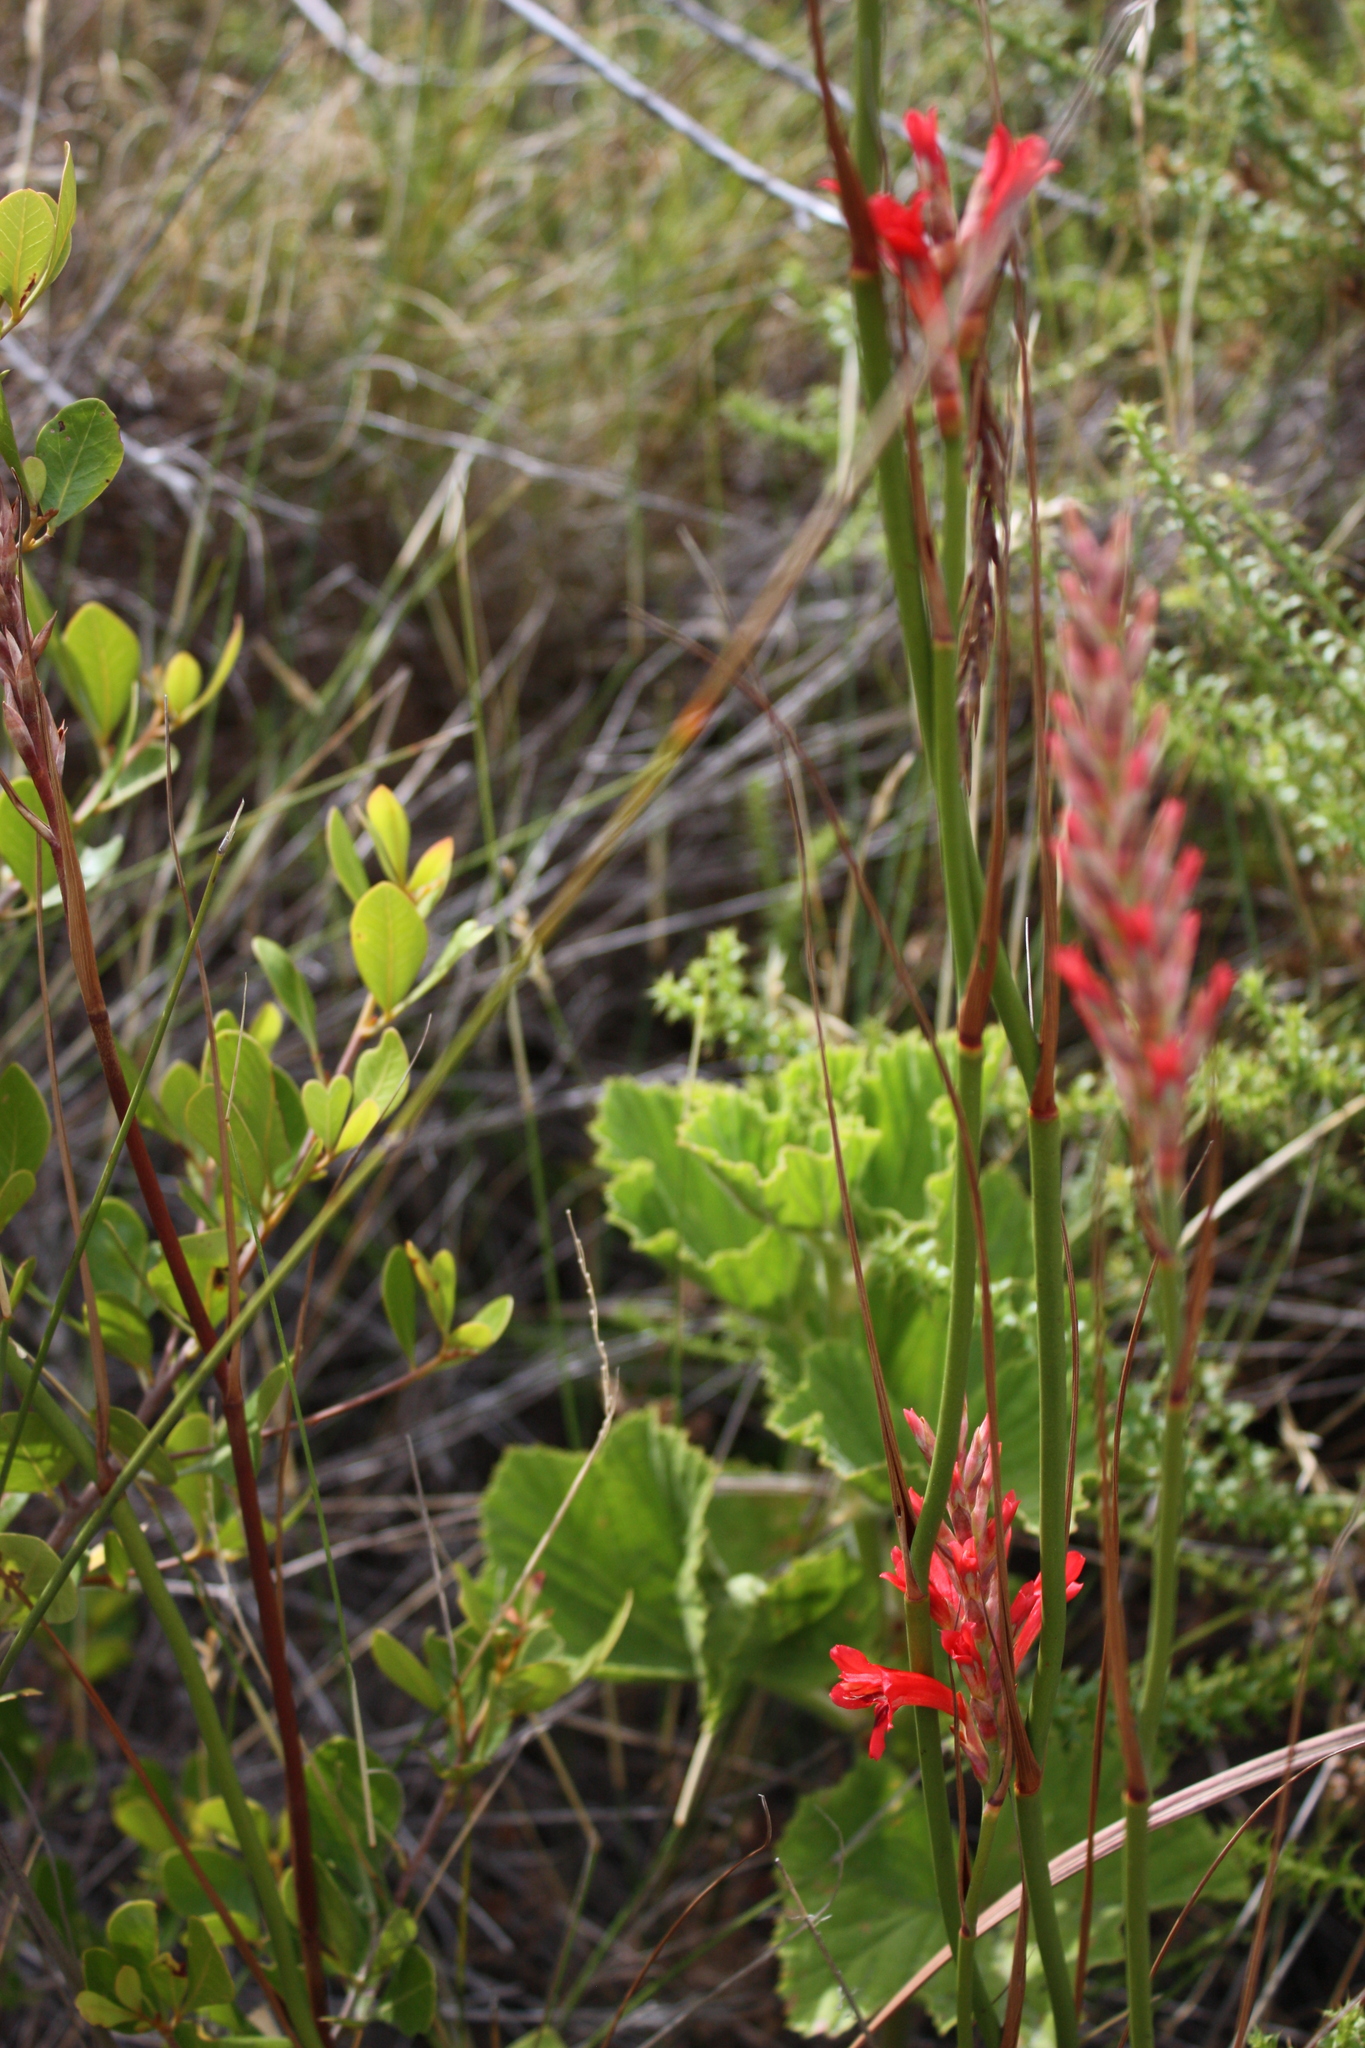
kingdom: Plantae
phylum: Tracheophyta
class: Liliopsida
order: Asparagales
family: Iridaceae
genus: Tritoniopsis
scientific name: Tritoniopsis triticea
